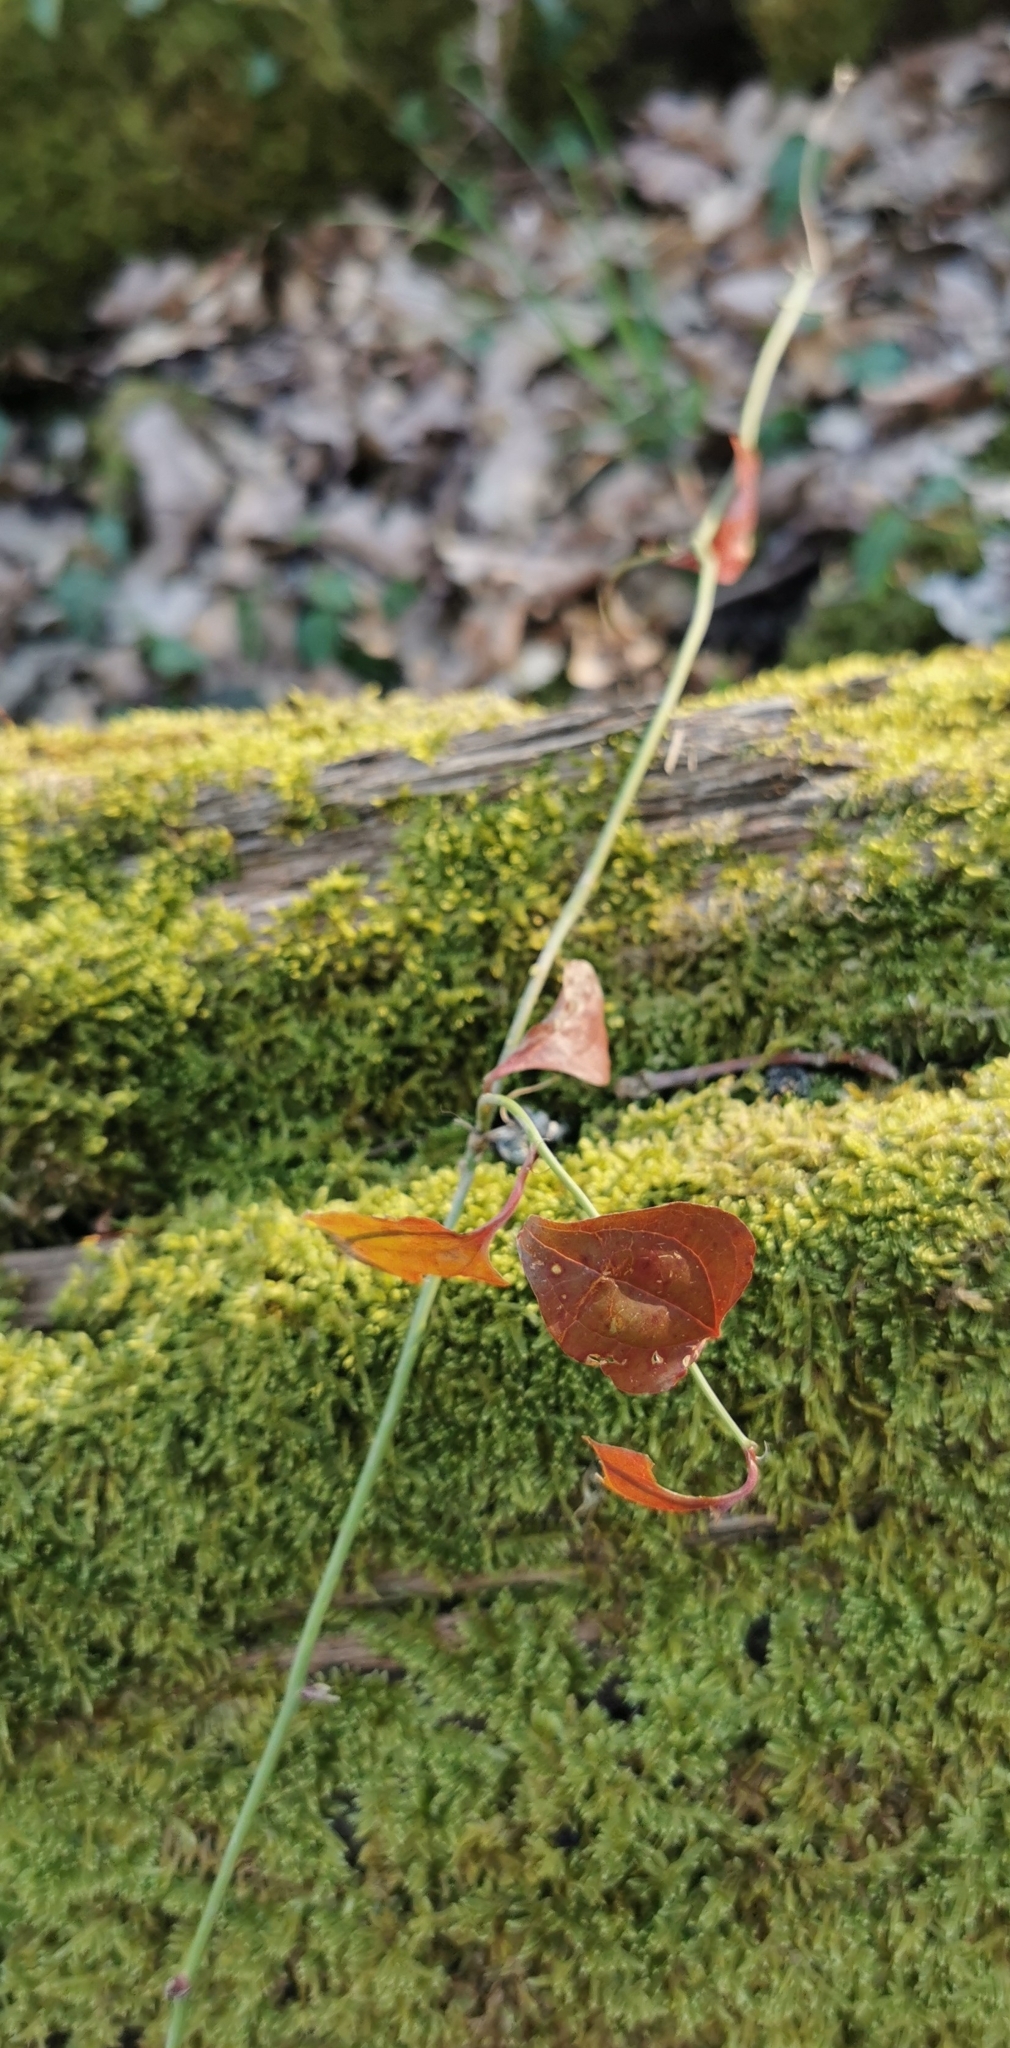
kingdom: Plantae
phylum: Tracheophyta
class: Liliopsida
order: Liliales
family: Smilacaceae
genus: Smilax
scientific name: Smilax excelsa
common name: Larger smilax
